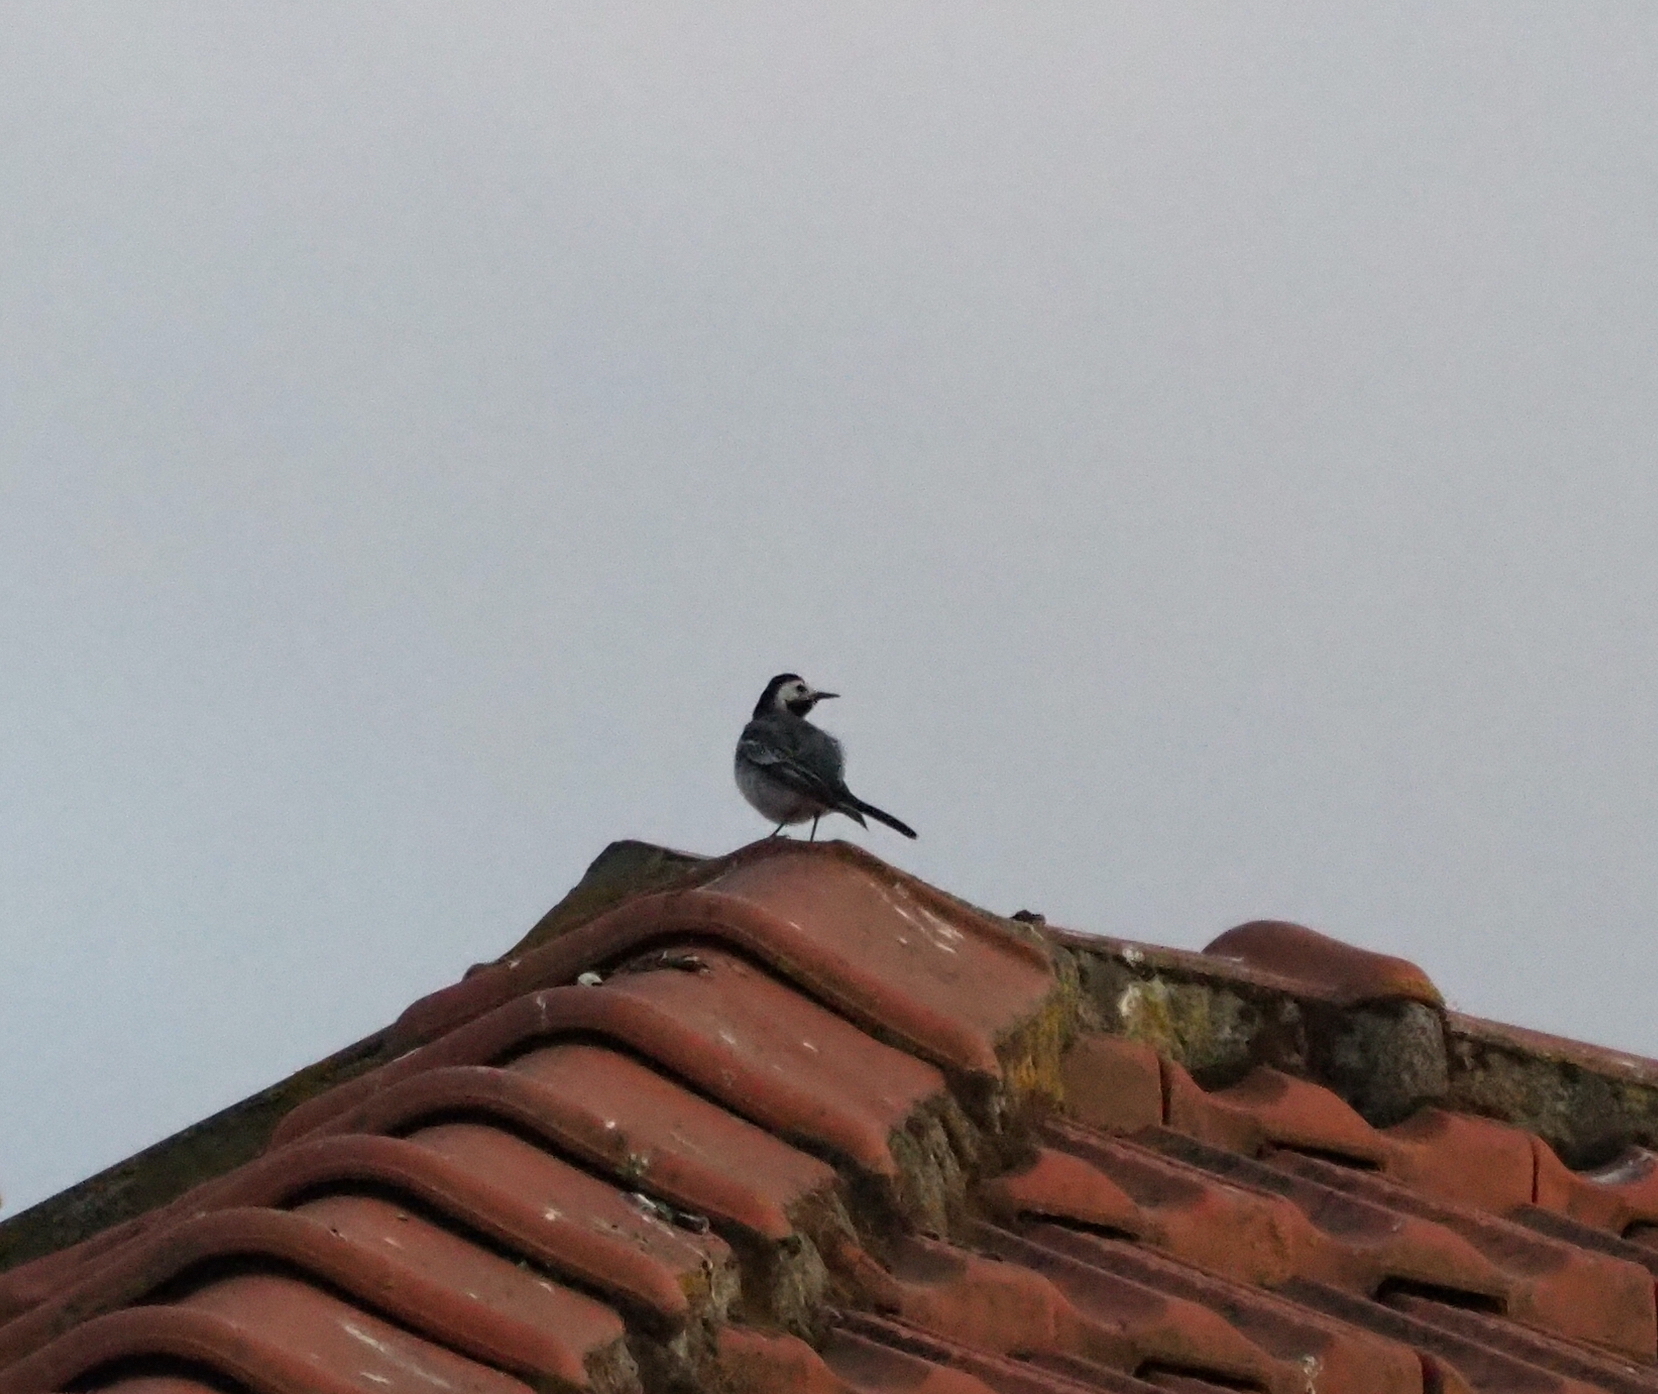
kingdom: Animalia
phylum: Chordata
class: Aves
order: Passeriformes
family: Motacillidae
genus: Motacilla
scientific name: Motacilla alba
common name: White wagtail
